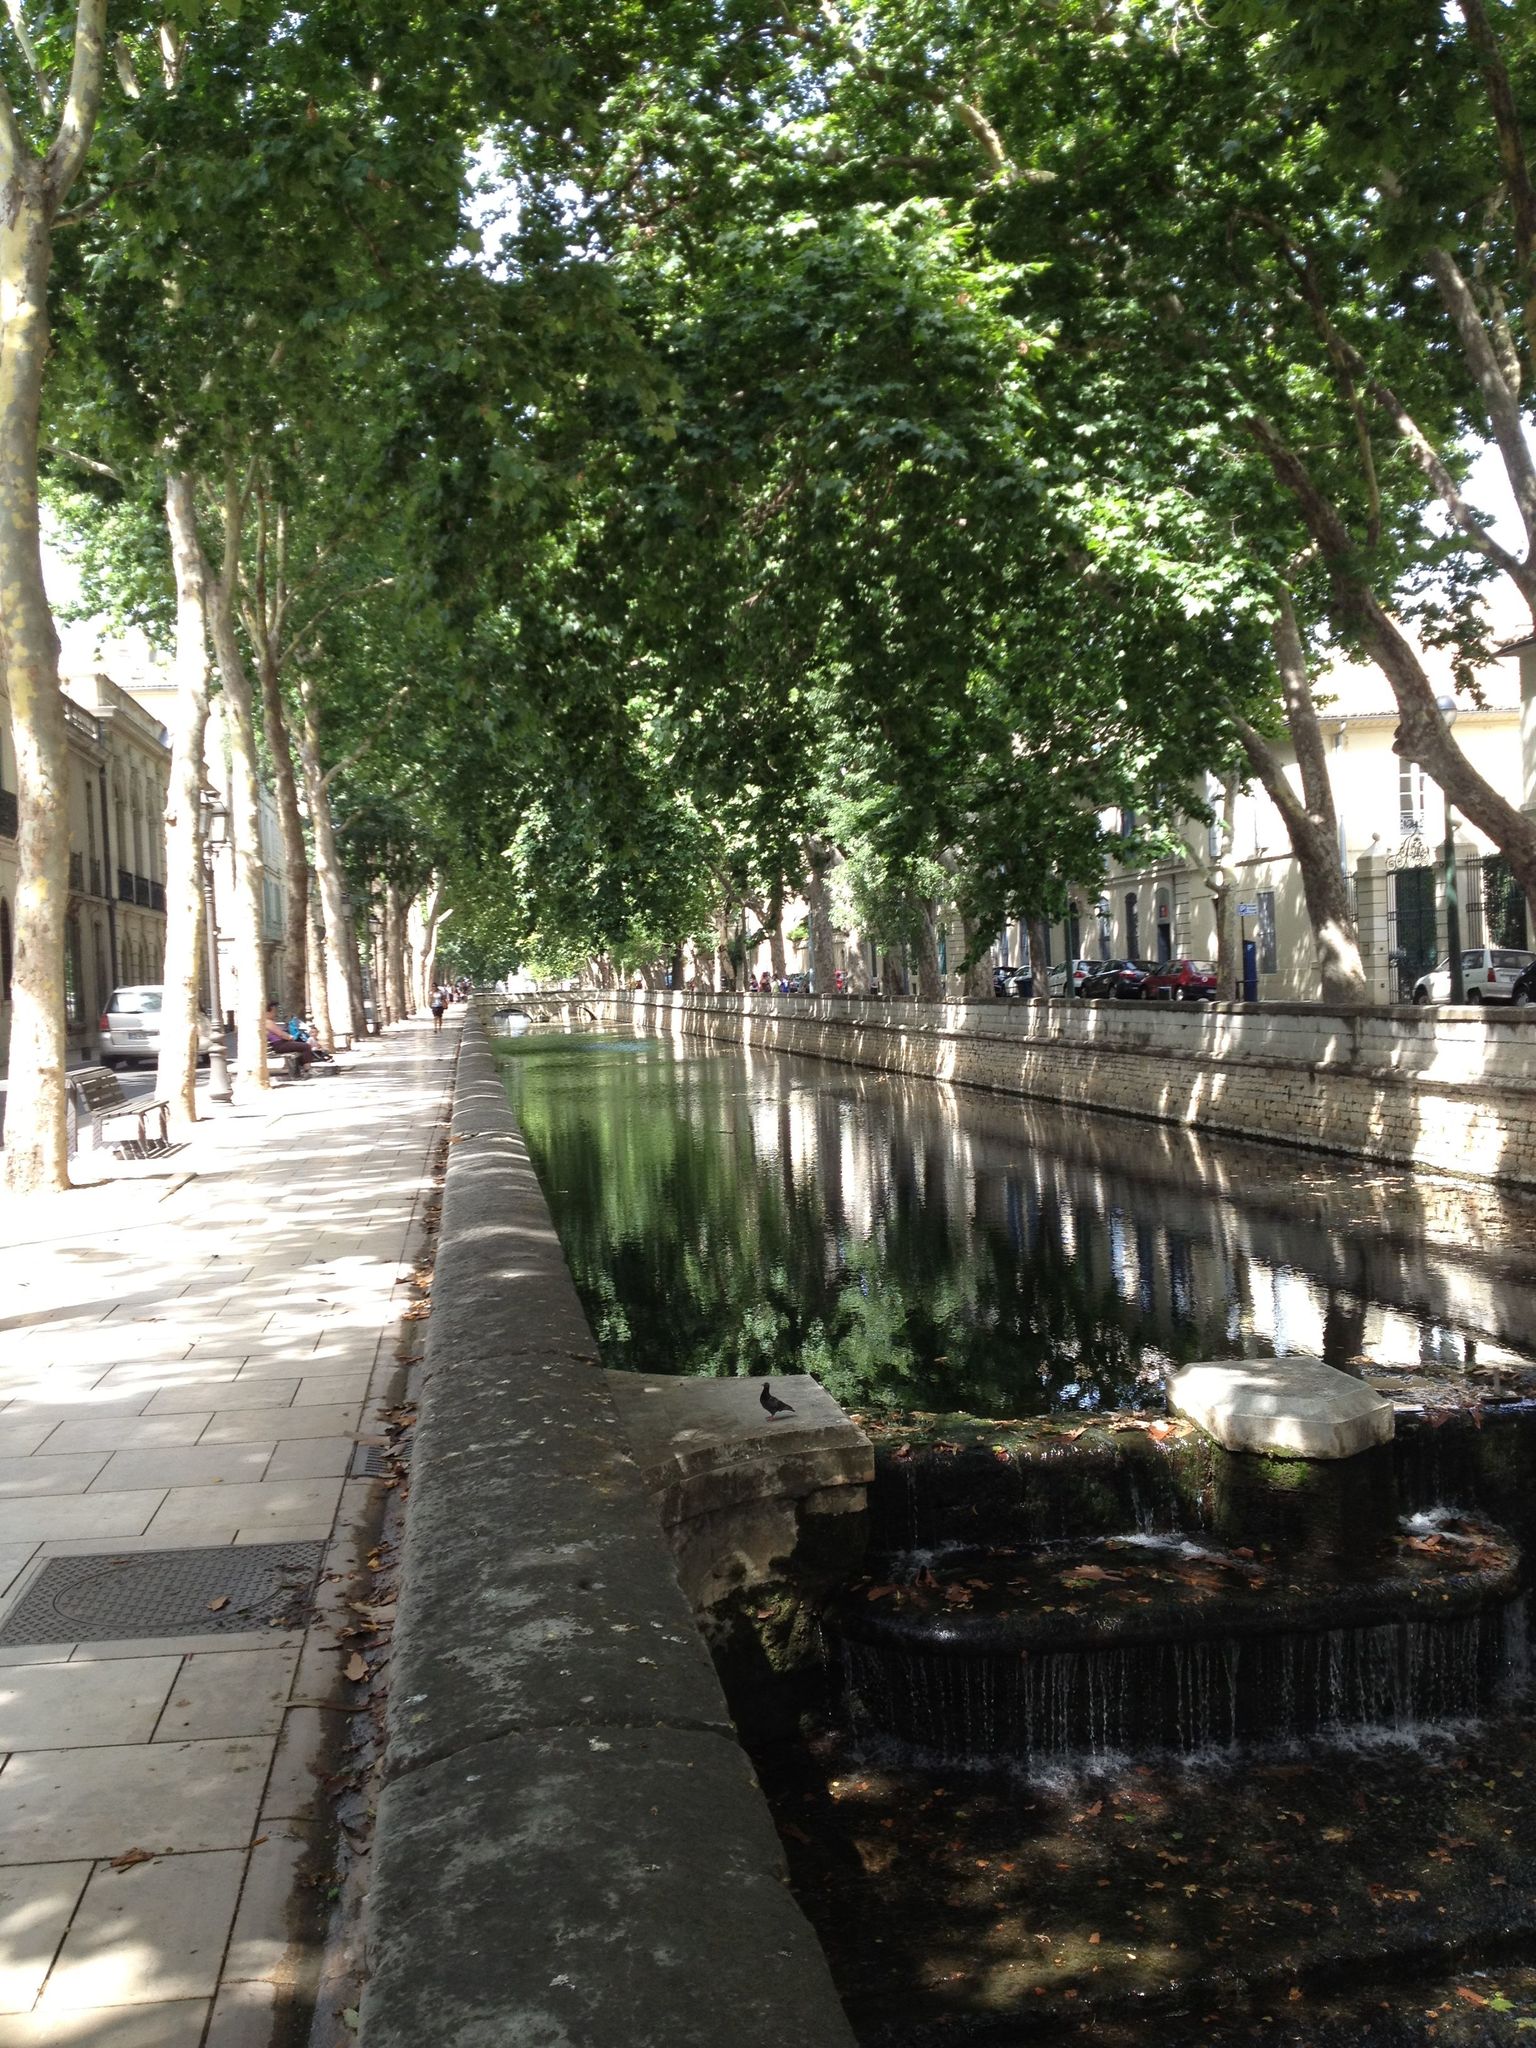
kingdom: Animalia
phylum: Chordata
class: Aves
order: Columbiformes
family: Columbidae
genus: Columba
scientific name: Columba livia
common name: Rock pigeon
